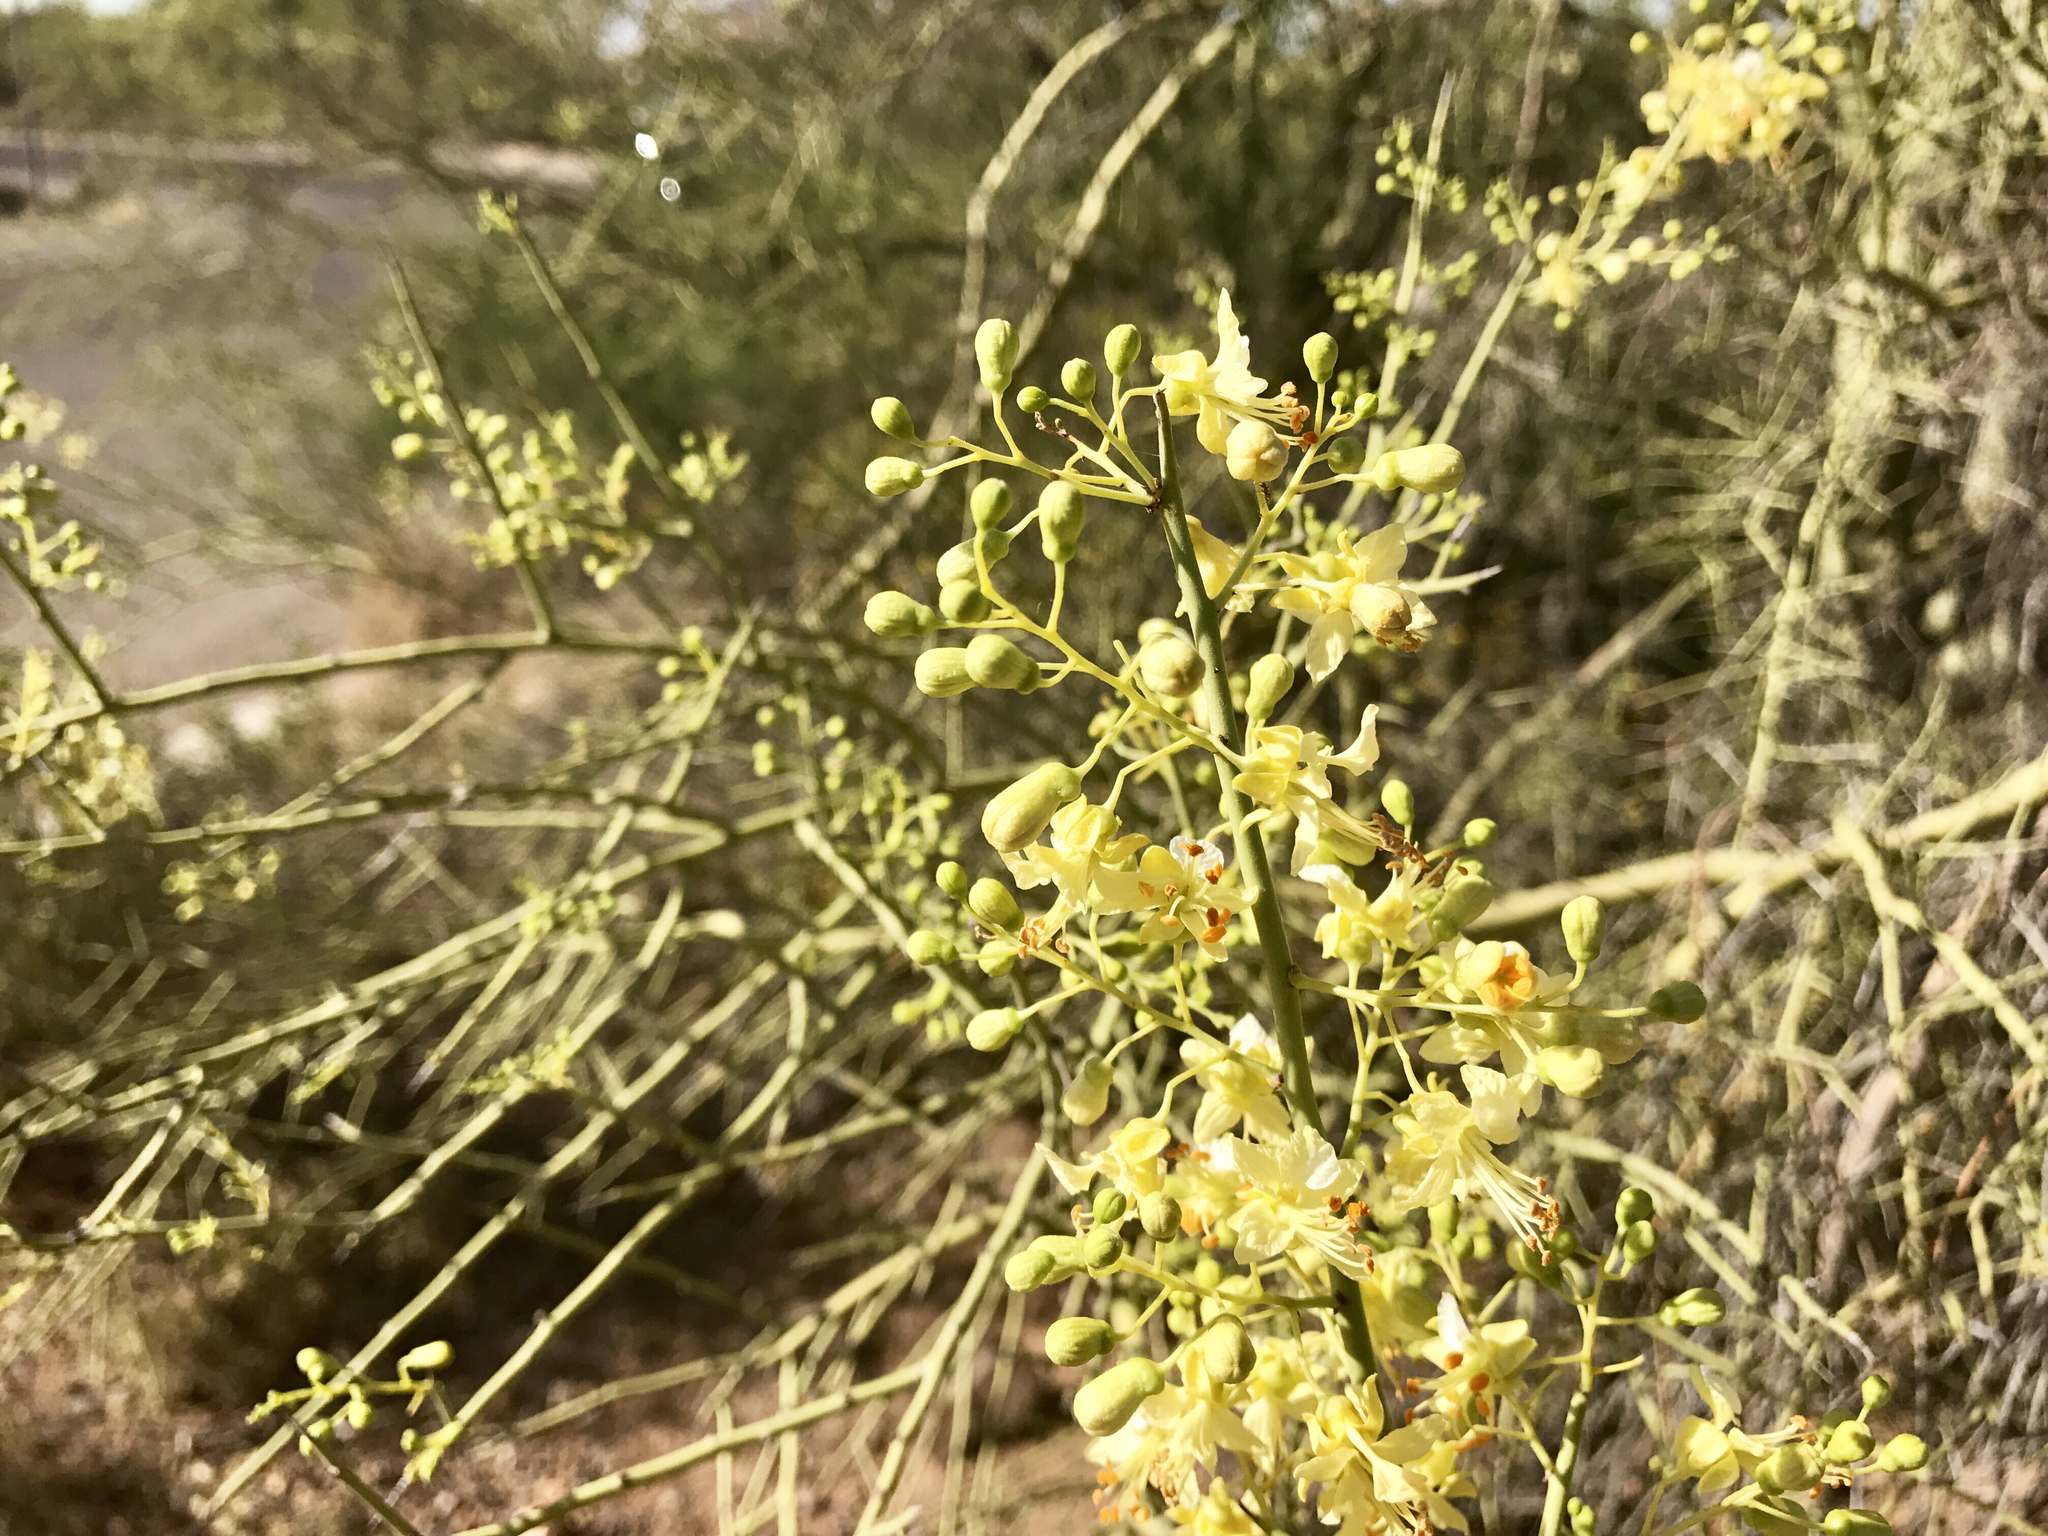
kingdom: Plantae
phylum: Tracheophyta
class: Magnoliopsida
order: Fabales
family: Fabaceae
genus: Parkinsonia
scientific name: Parkinsonia microphylla
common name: Yellow paloverde
